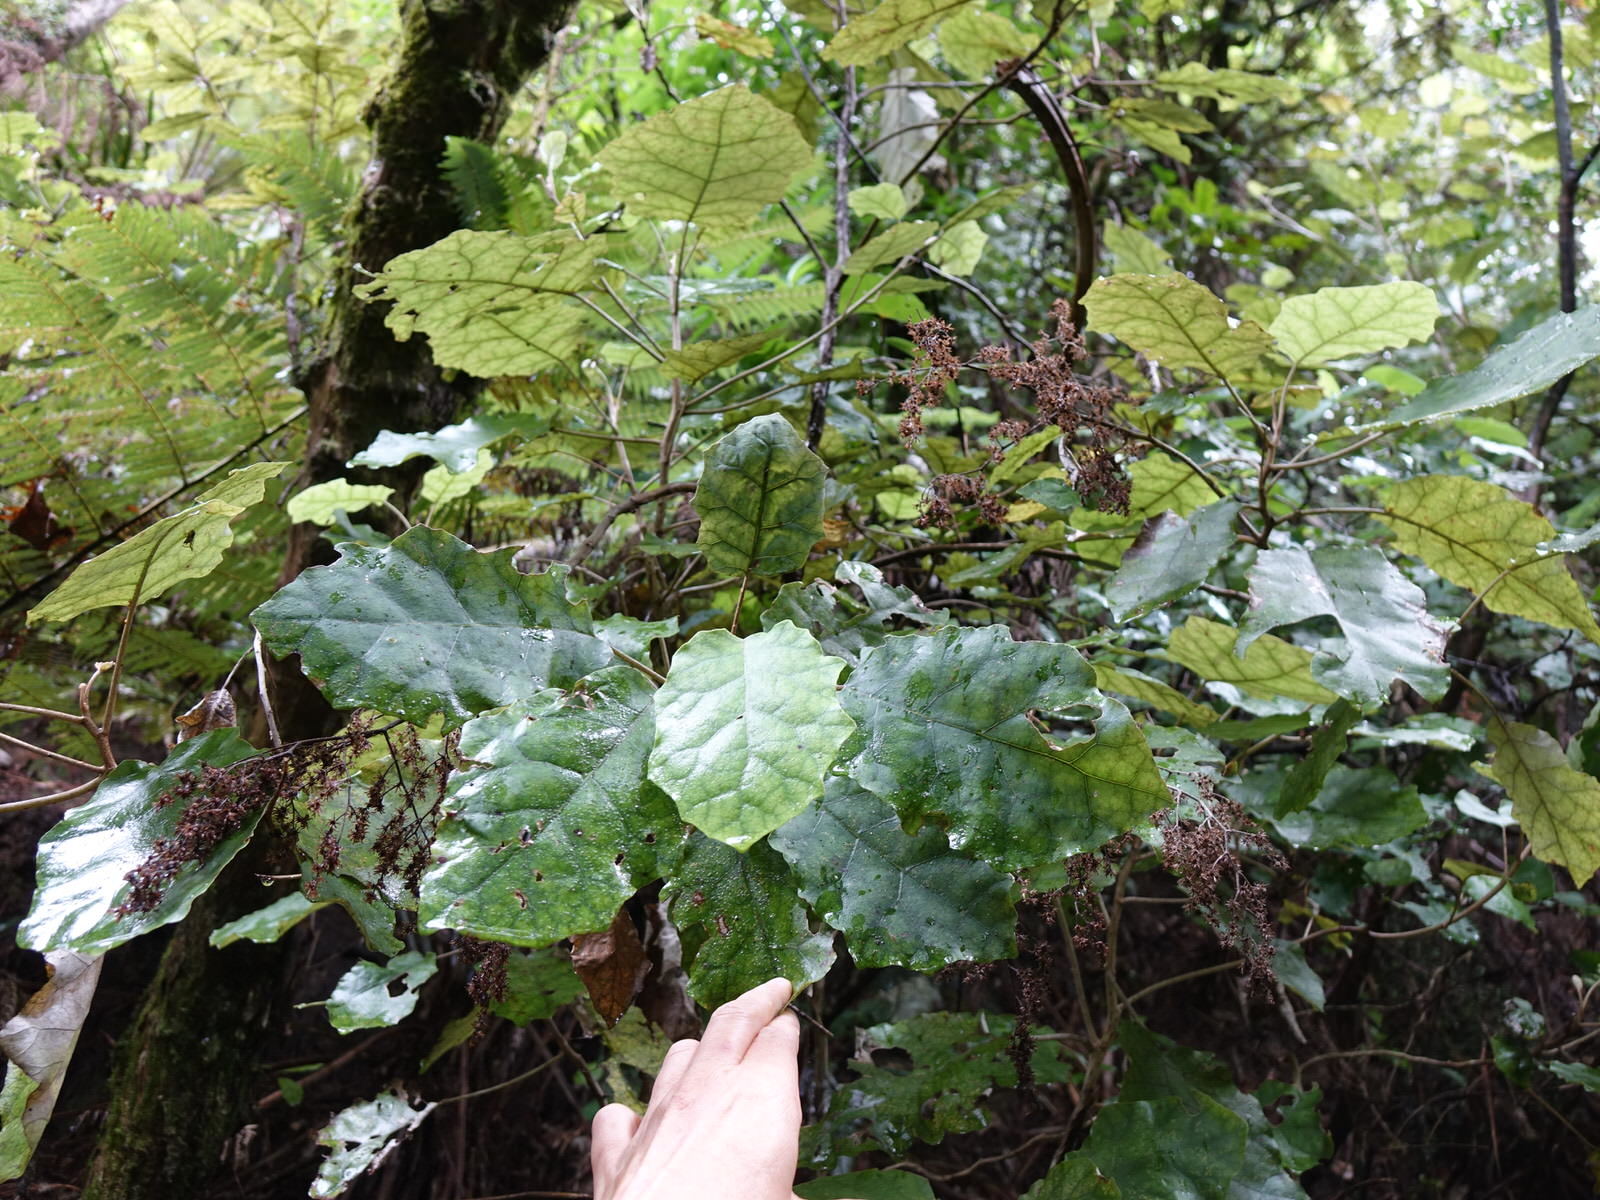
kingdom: Plantae
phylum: Tracheophyta
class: Magnoliopsida
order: Asterales
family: Asteraceae
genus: Brachyglottis
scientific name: Brachyglottis repanda
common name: Hedge ragwort
